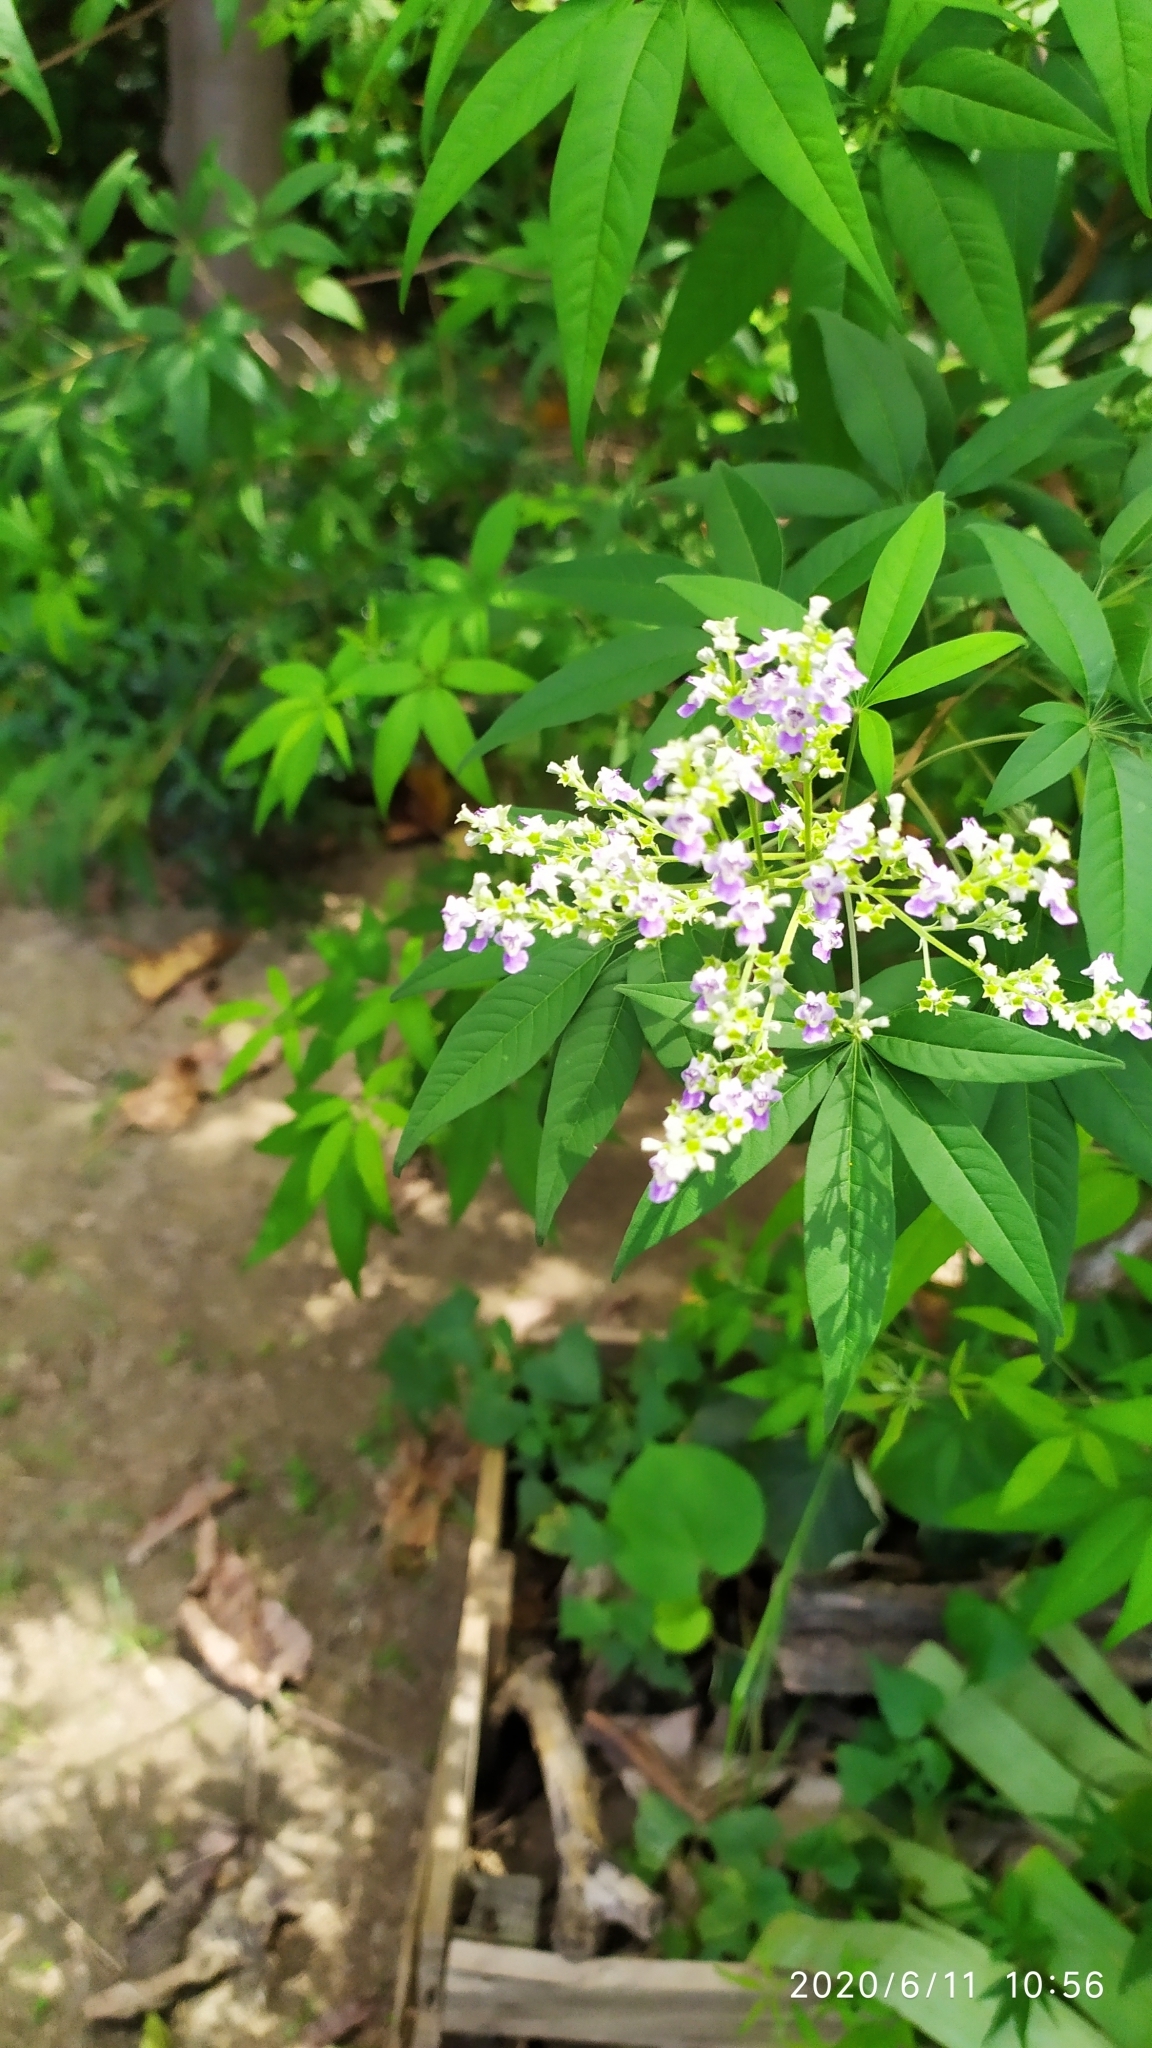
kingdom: Plantae
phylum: Tracheophyta
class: Magnoliopsida
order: Lamiales
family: Lamiaceae
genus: Vitex
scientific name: Vitex negundo
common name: Chinese chastetree
